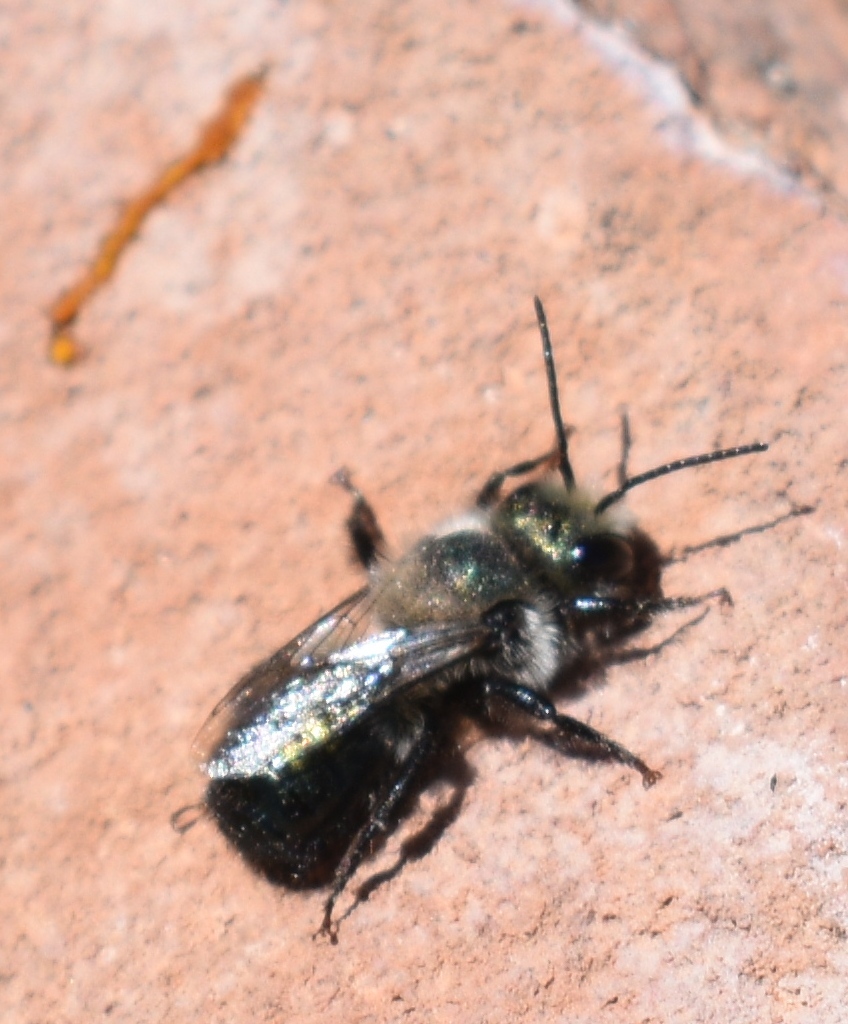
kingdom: Animalia
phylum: Arthropoda
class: Insecta
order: Hymenoptera
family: Megachilidae
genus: Osmia
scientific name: Osmia
